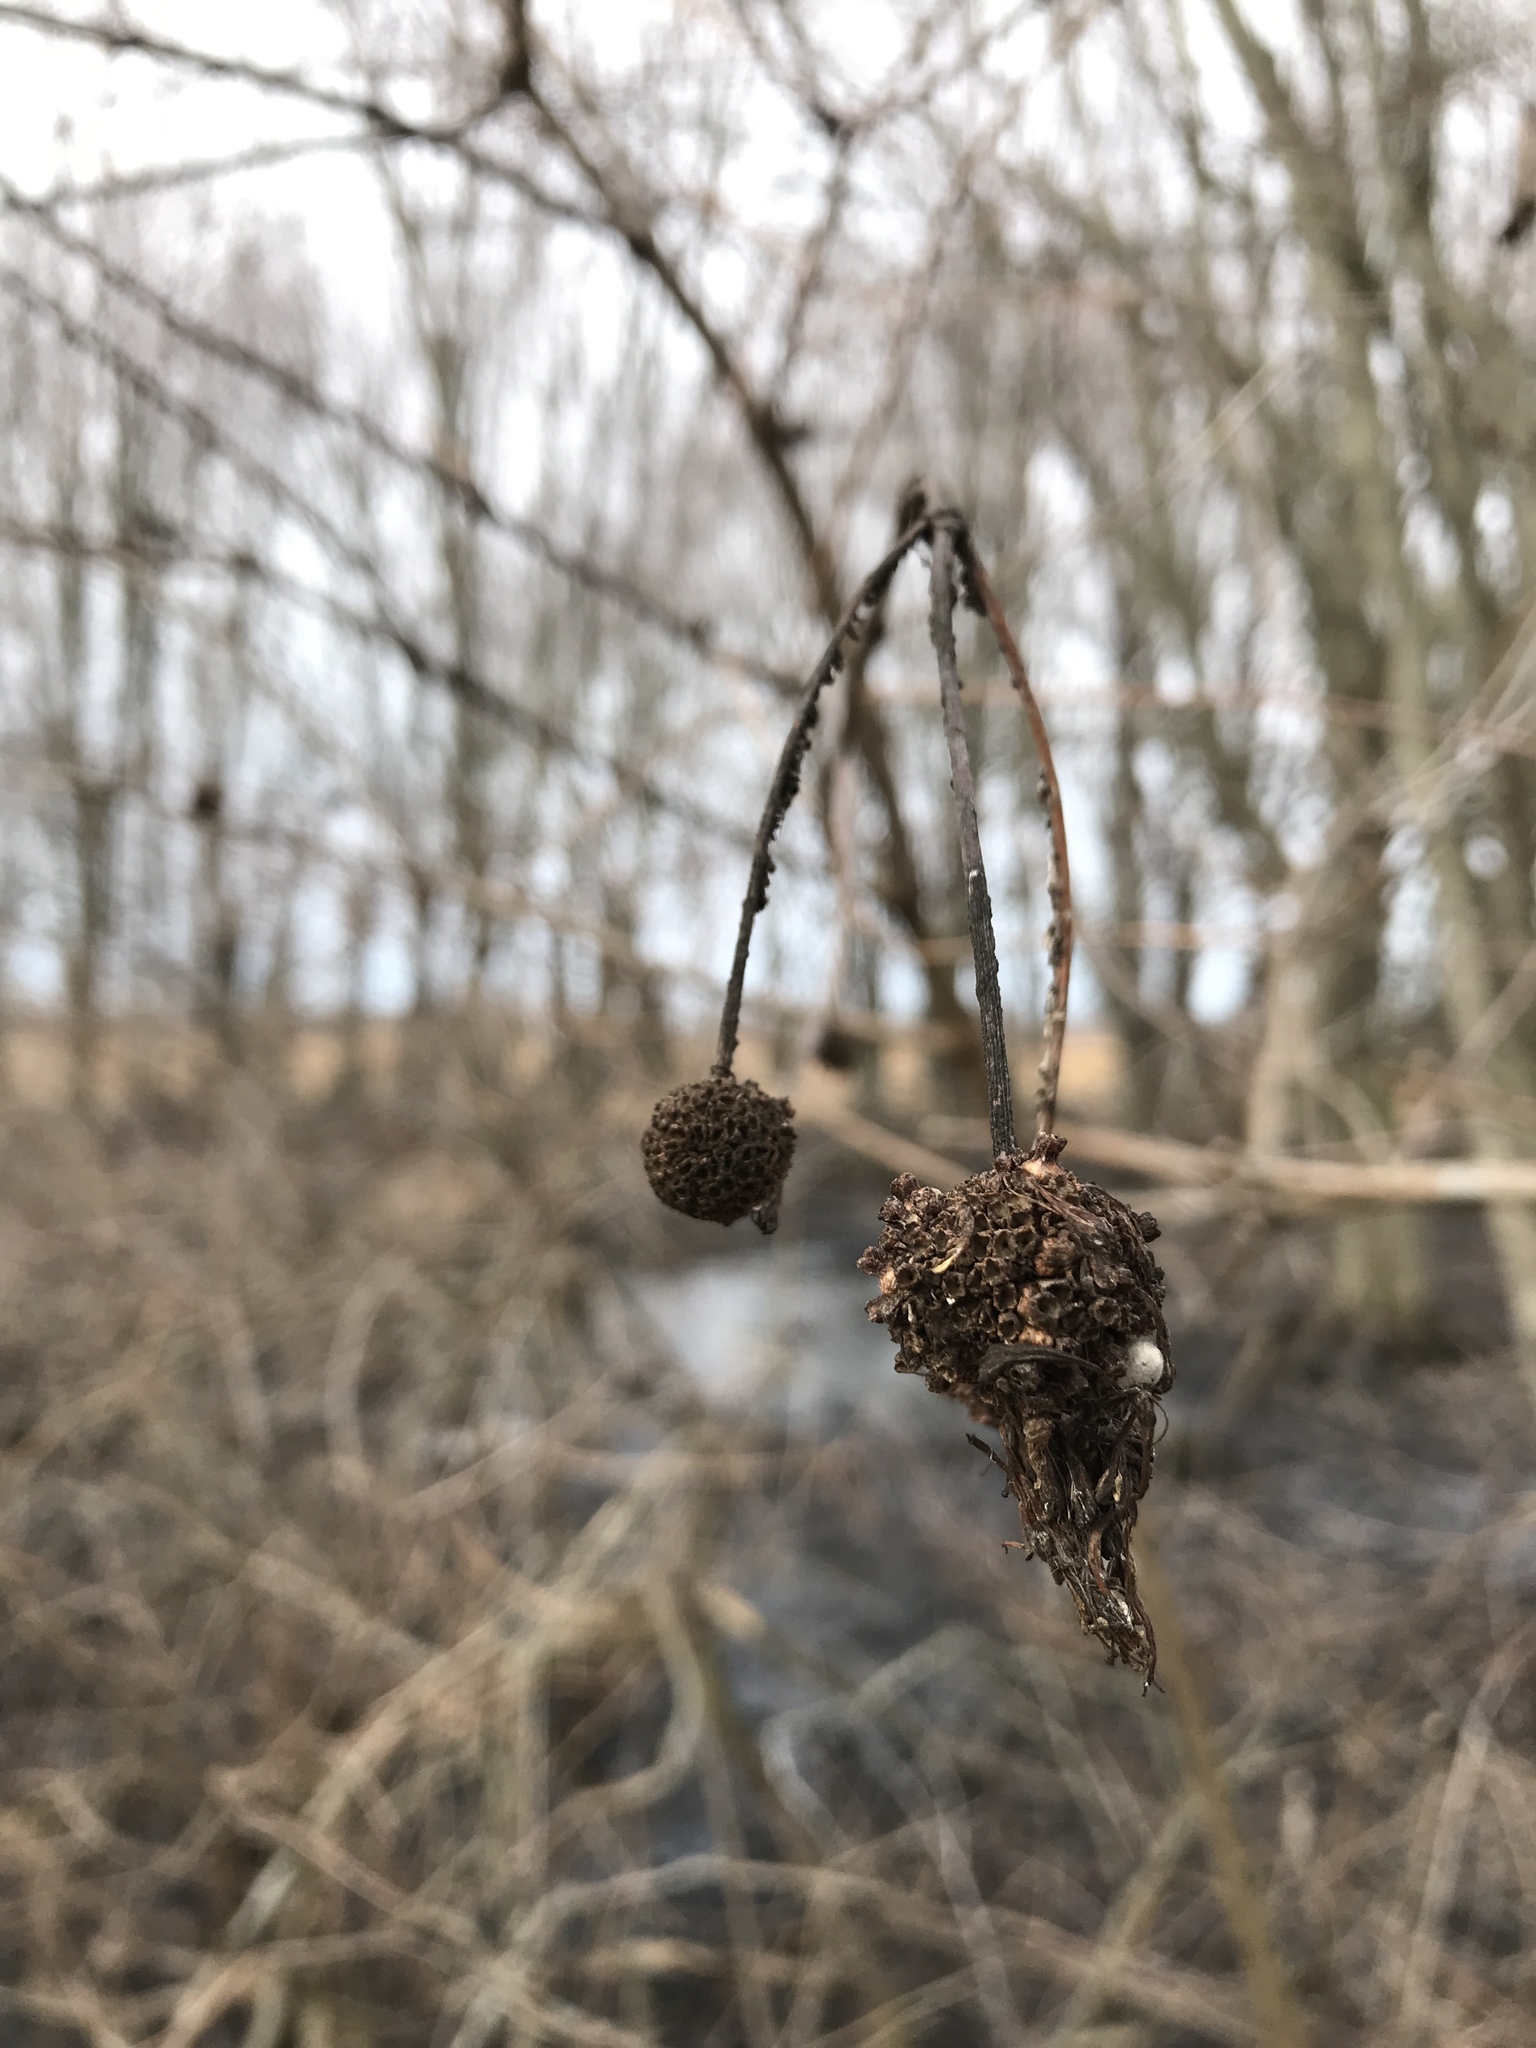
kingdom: Plantae
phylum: Tracheophyta
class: Magnoliopsida
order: Gentianales
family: Rubiaceae
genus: Cephalanthus
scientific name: Cephalanthus occidentalis
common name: Button-willow
